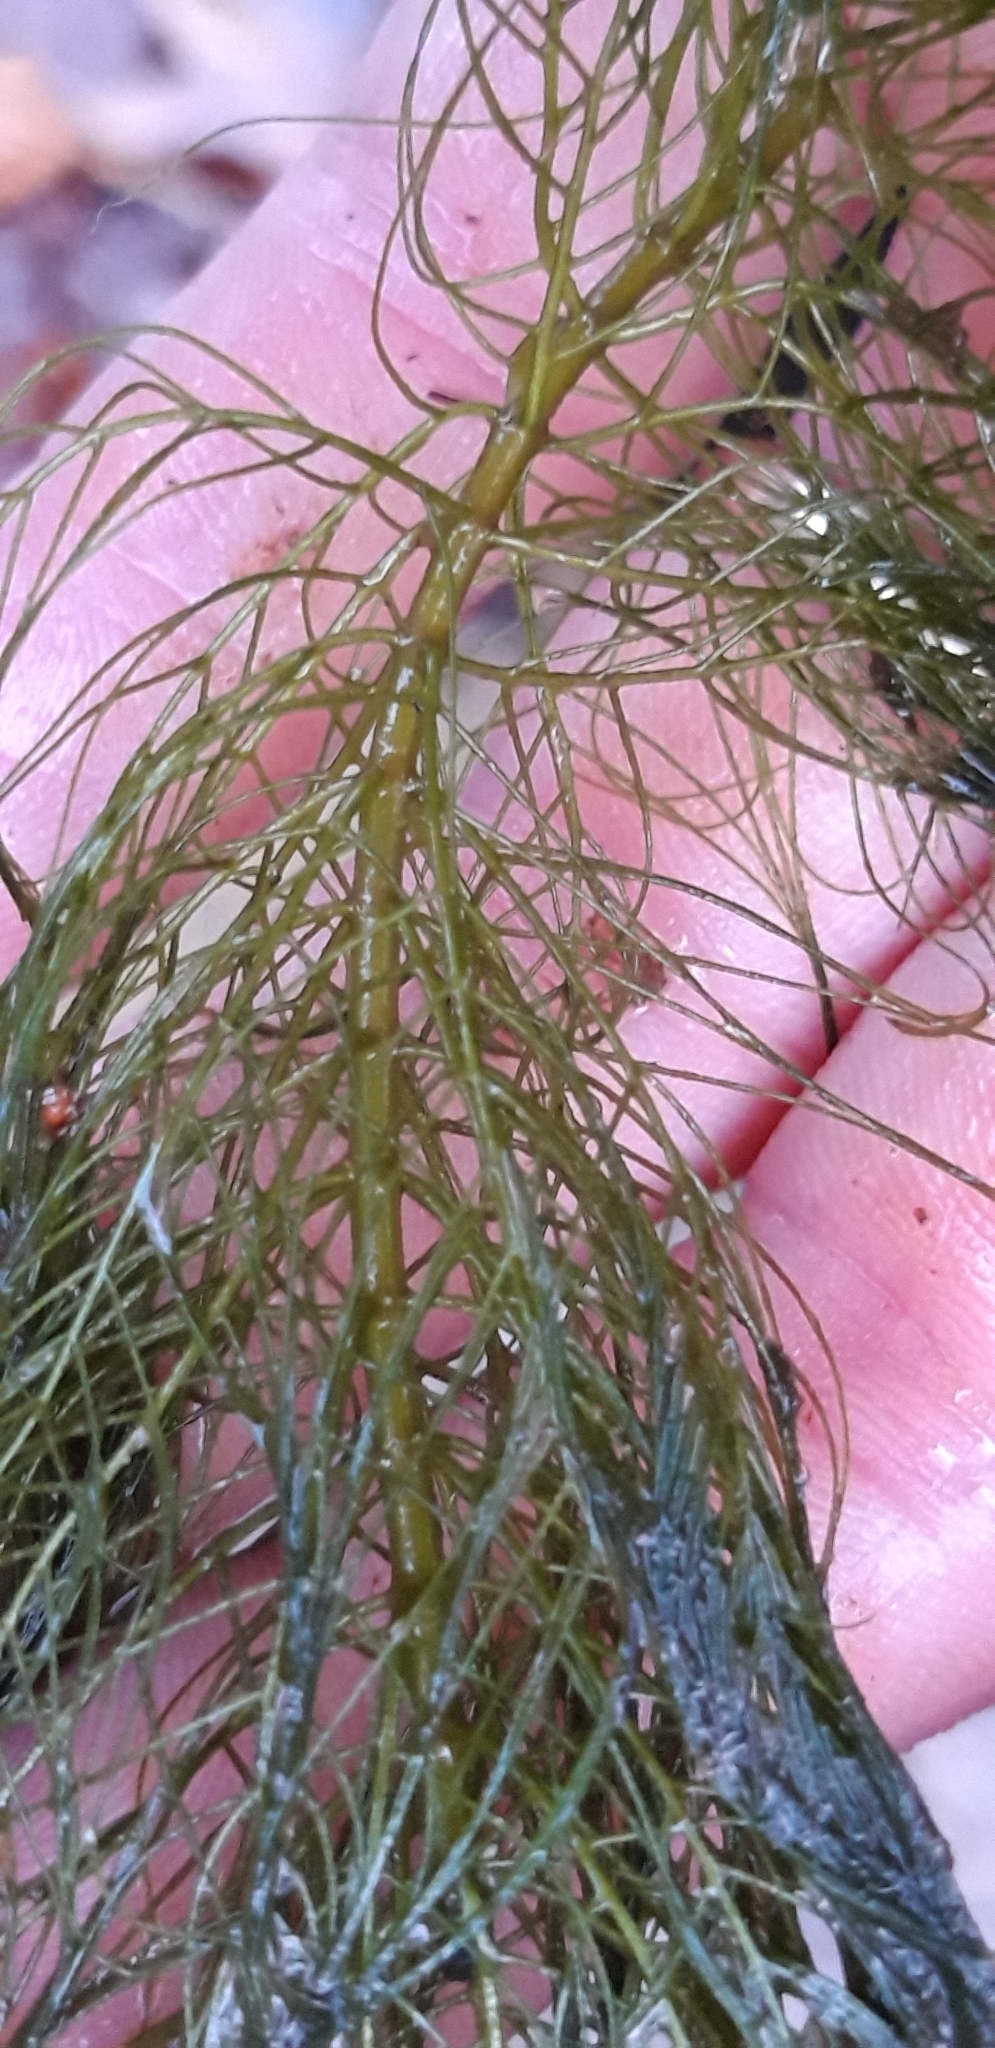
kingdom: Plantae
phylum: Tracheophyta
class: Magnoliopsida
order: Saxifragales
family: Haloragaceae
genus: Myriophyllum
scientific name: Myriophyllum heterophyllum
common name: Variable watermilfoil
